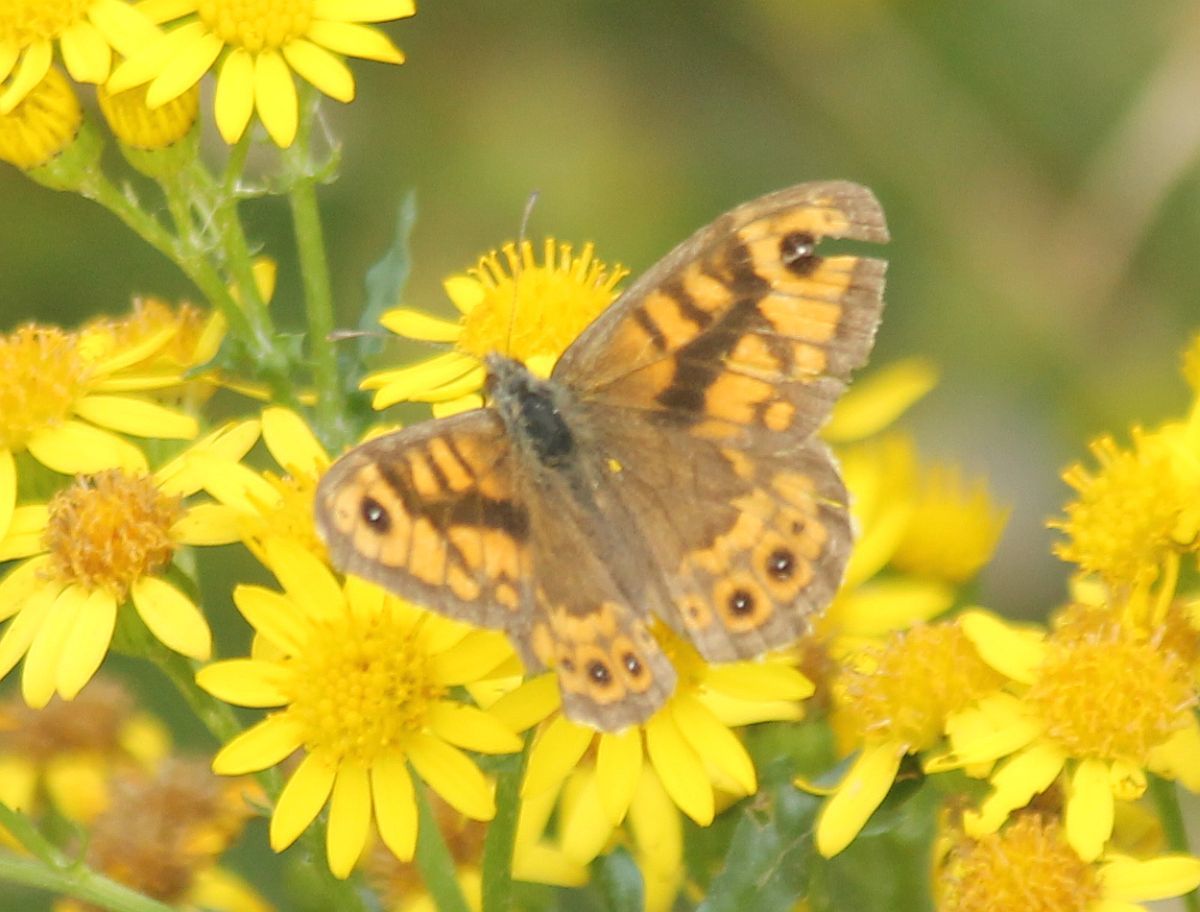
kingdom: Animalia
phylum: Arthropoda
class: Insecta
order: Lepidoptera
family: Nymphalidae
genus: Pararge
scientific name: Pararge Lasiommata megera
